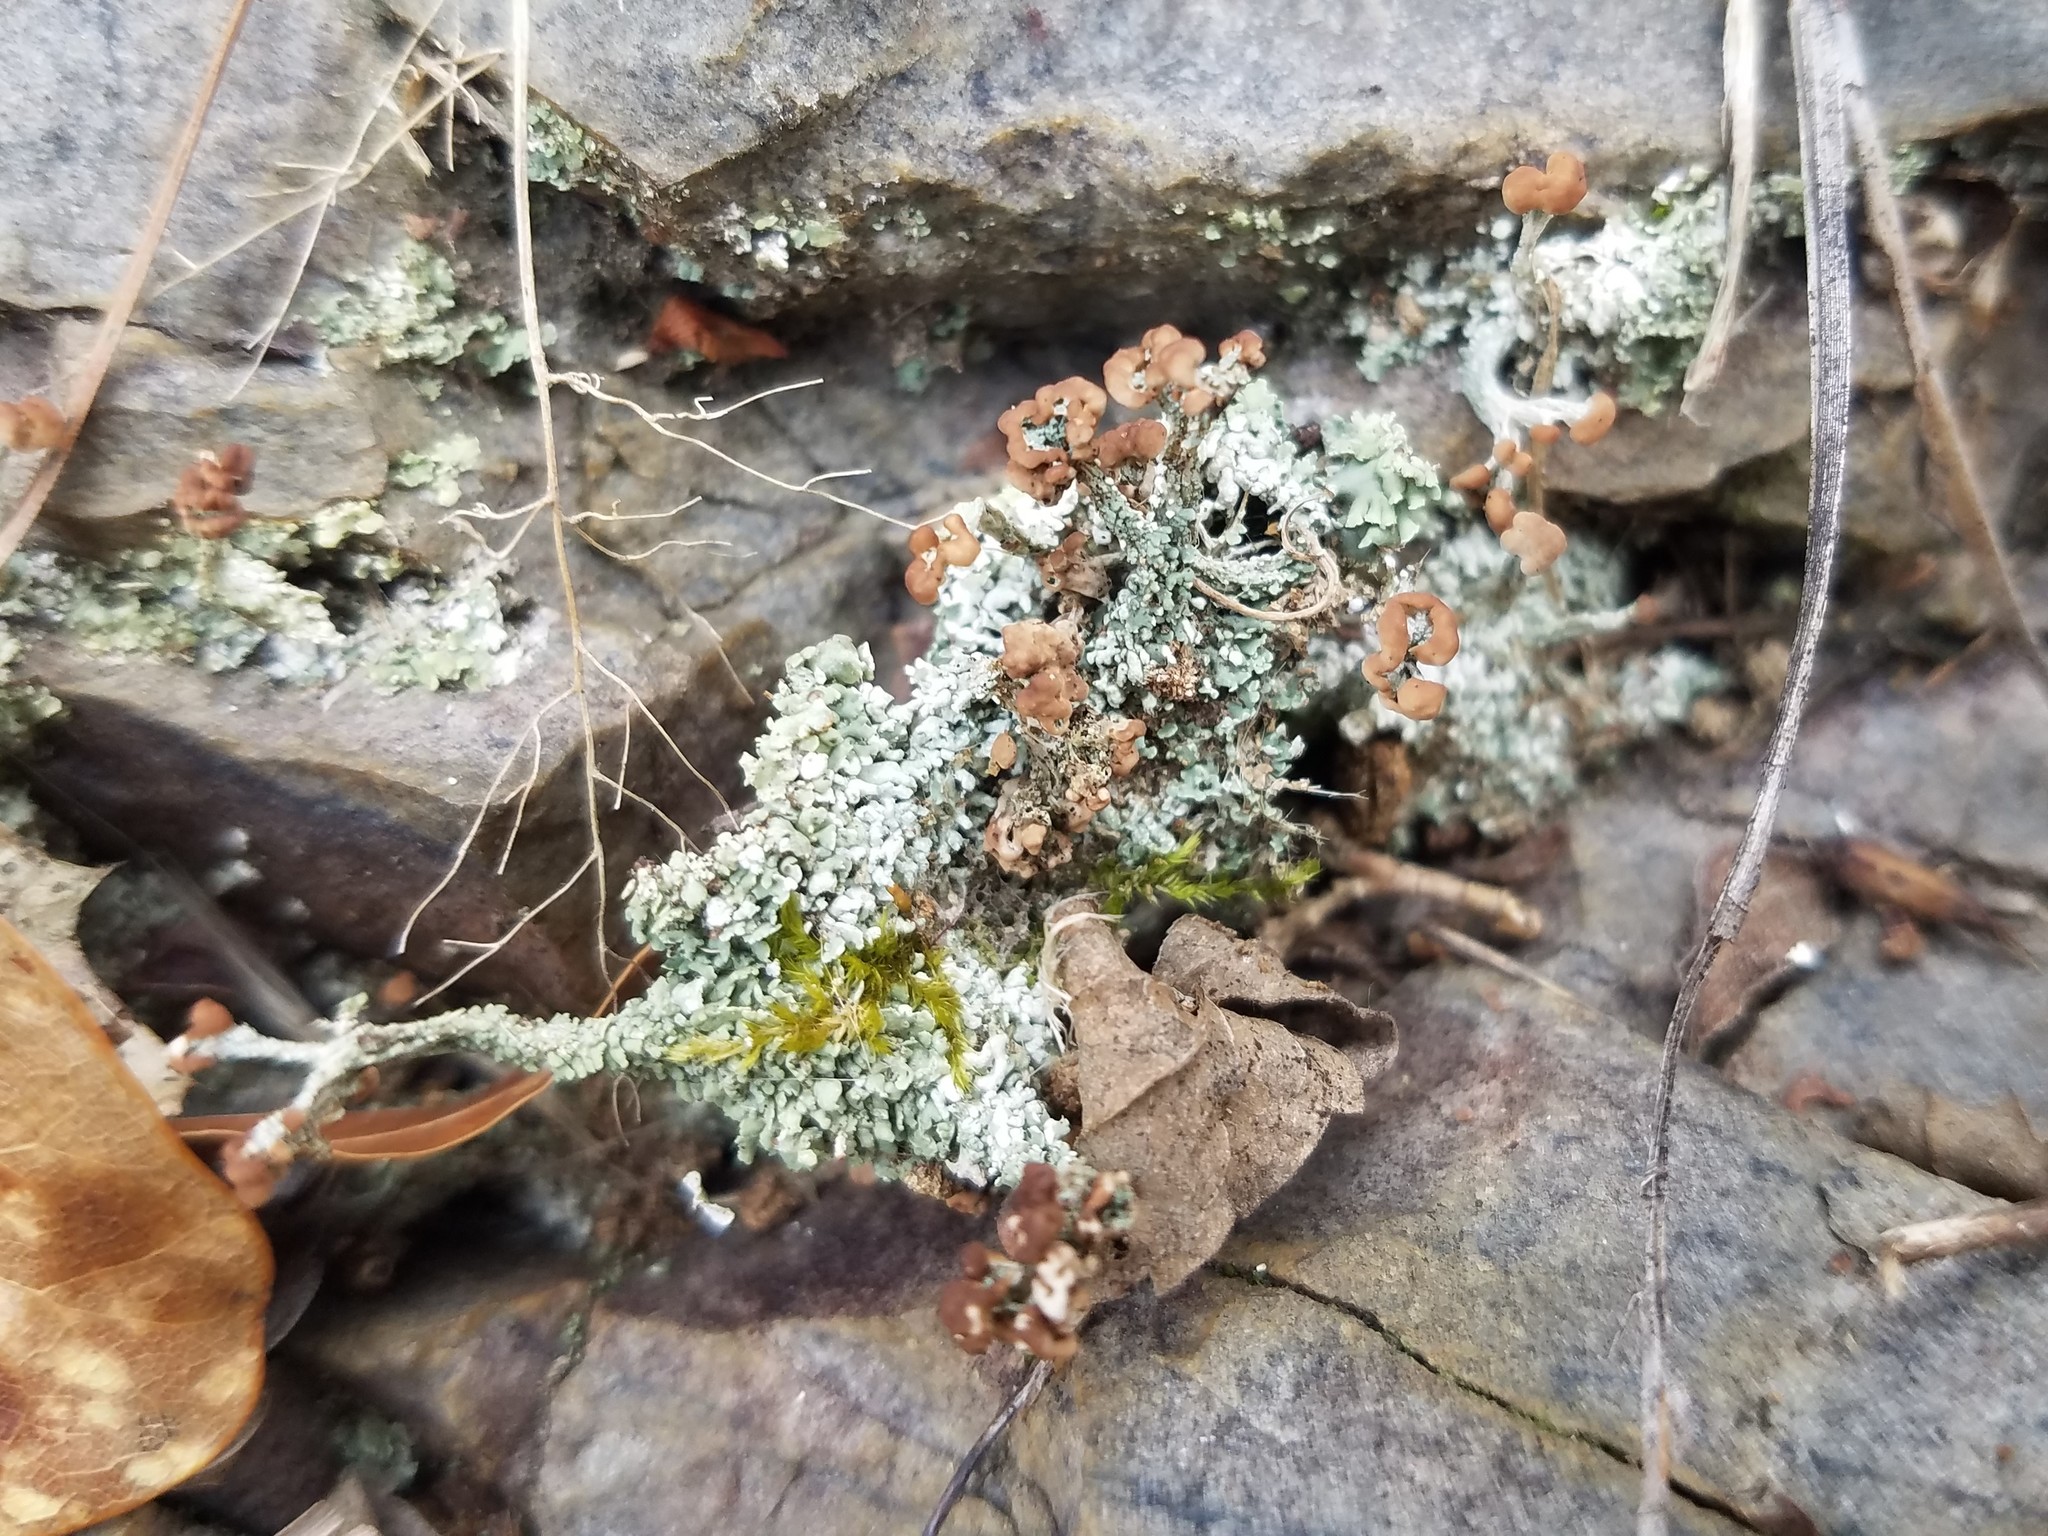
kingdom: Fungi
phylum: Ascomycota
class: Lecanoromycetes
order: Lecanorales
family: Cladoniaceae
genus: Cladonia
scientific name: Cladonia peziziformis
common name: Cup lichen
